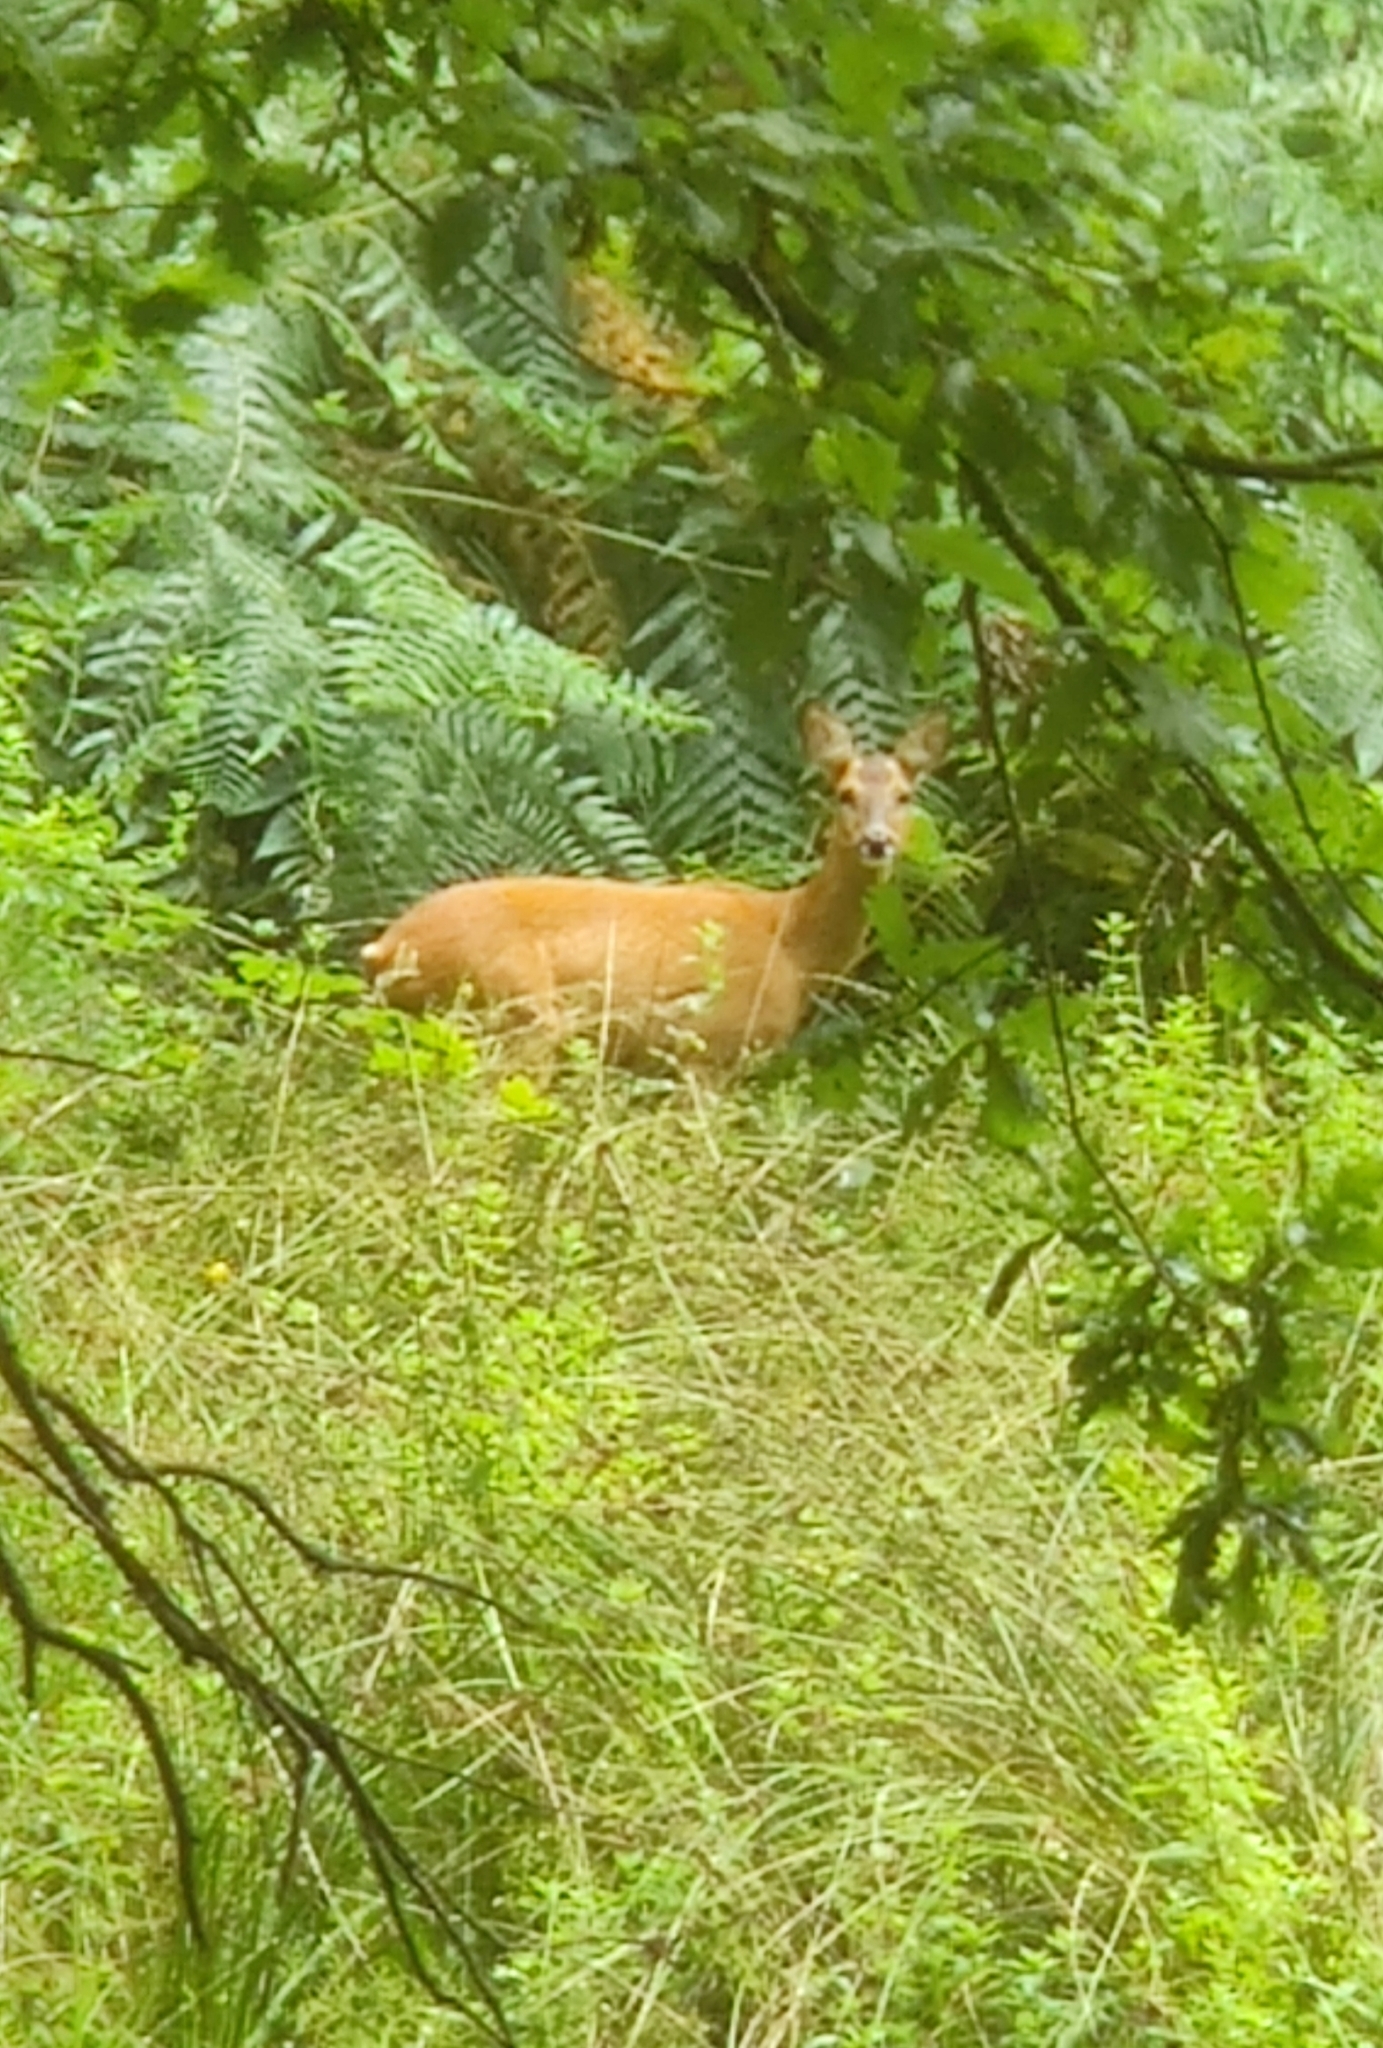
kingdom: Animalia
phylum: Chordata
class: Mammalia
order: Artiodactyla
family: Cervidae
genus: Capreolus
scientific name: Capreolus capreolus
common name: Western roe deer
